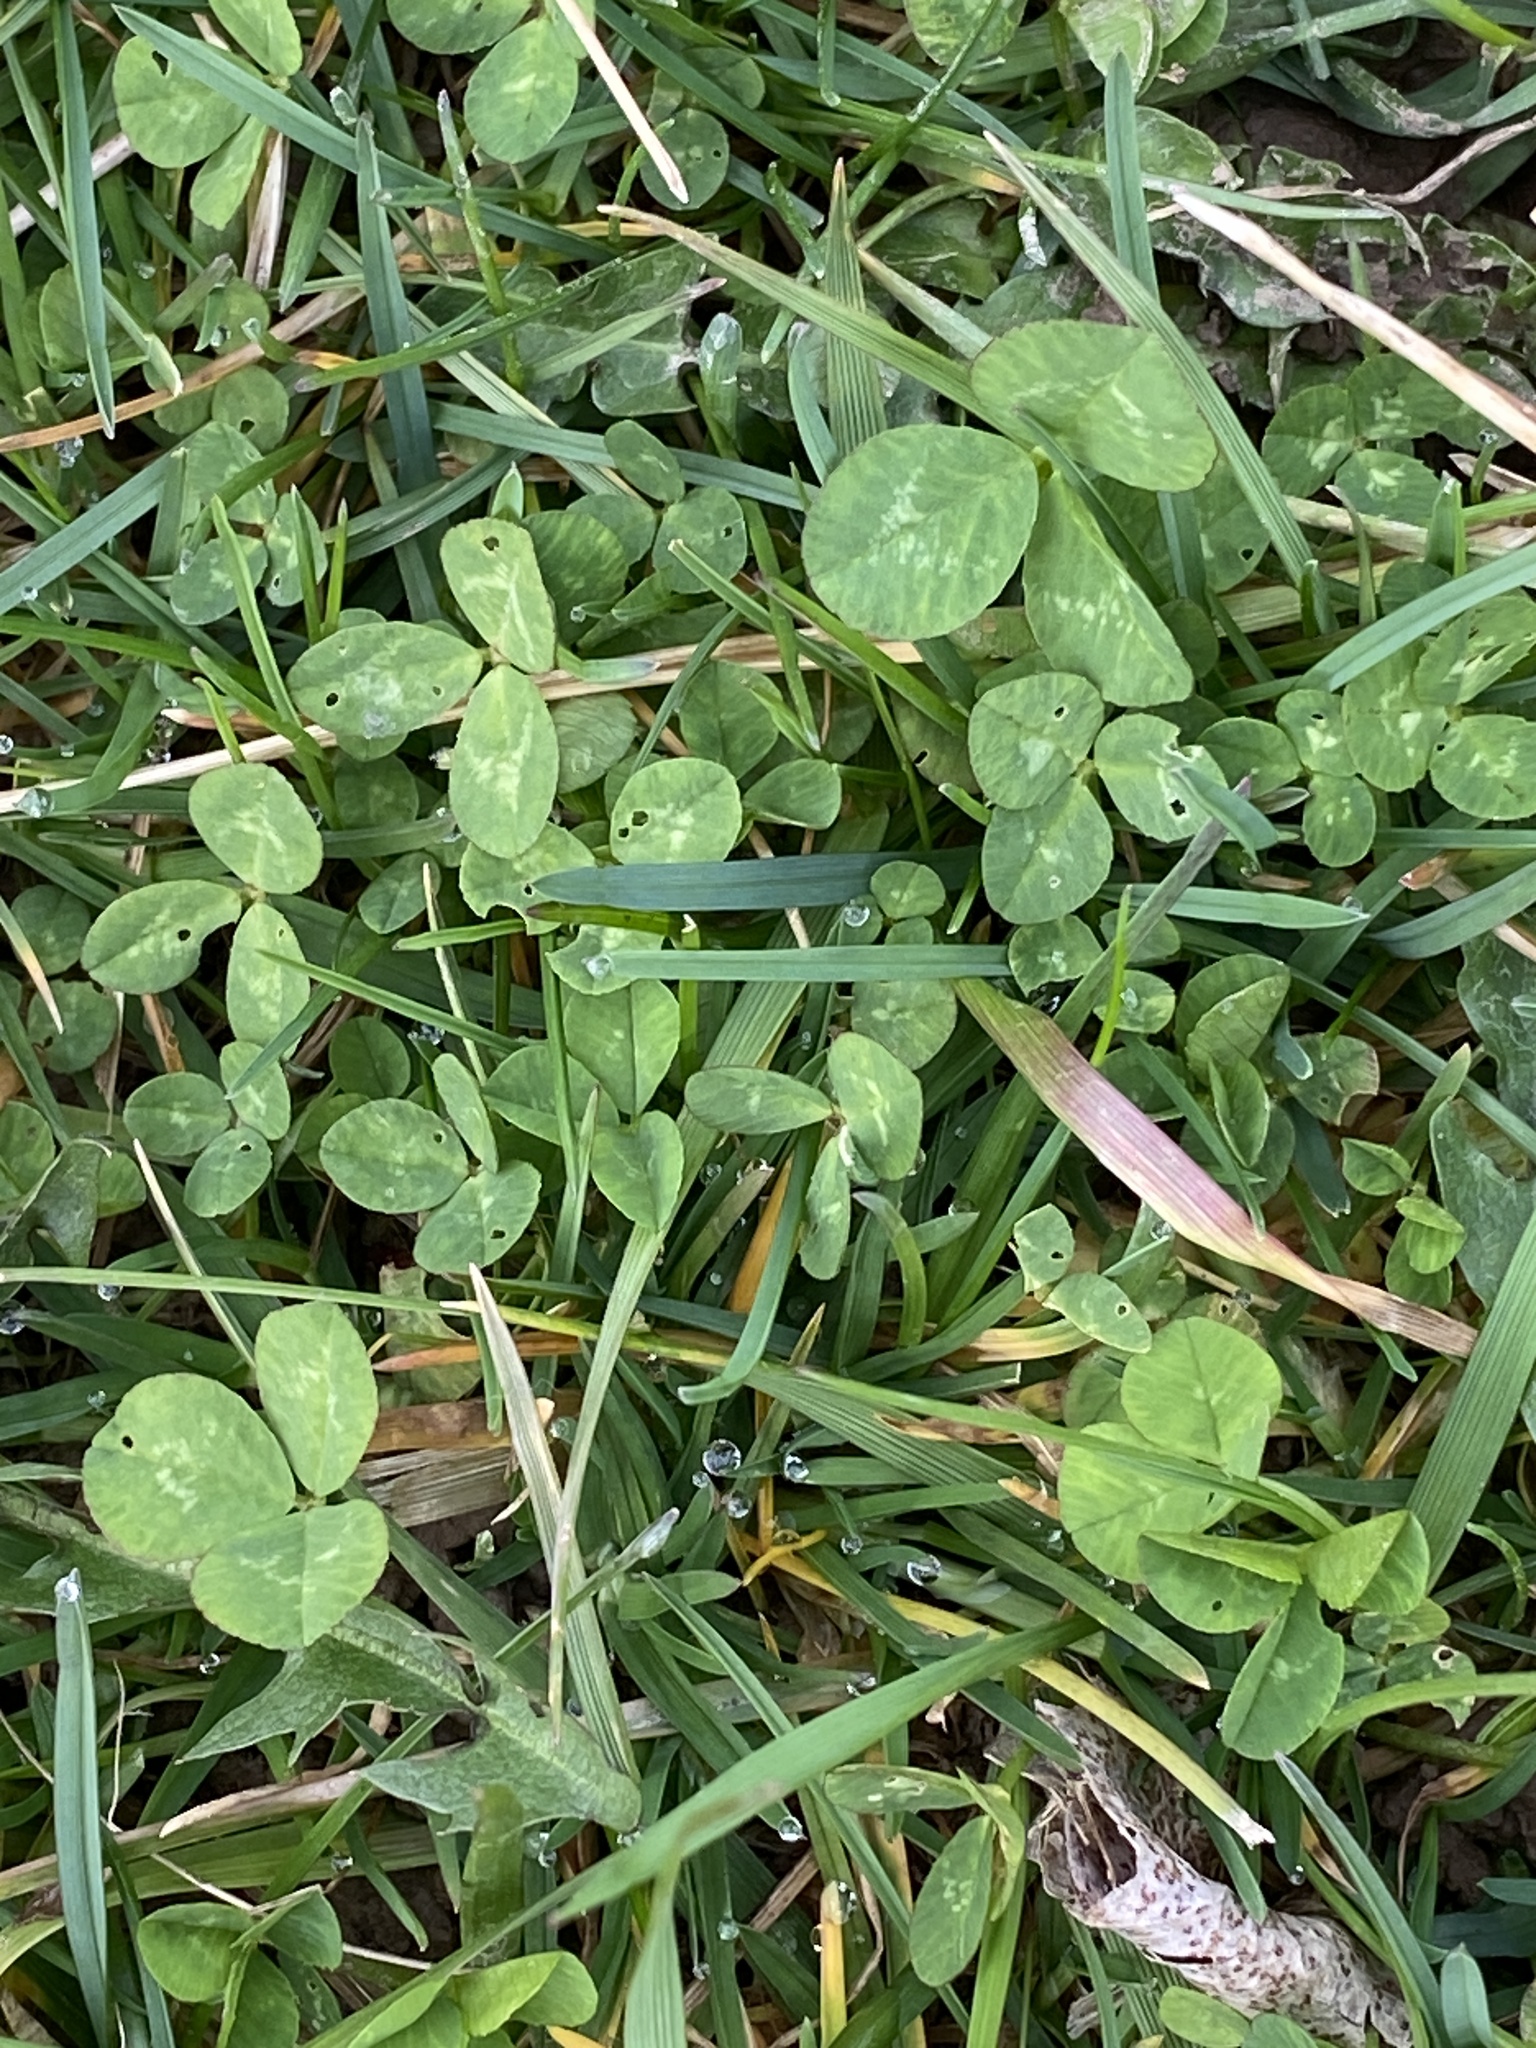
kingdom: Plantae
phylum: Tracheophyta
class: Magnoliopsida
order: Fabales
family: Fabaceae
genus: Trifolium
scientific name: Trifolium repens
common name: White clover
